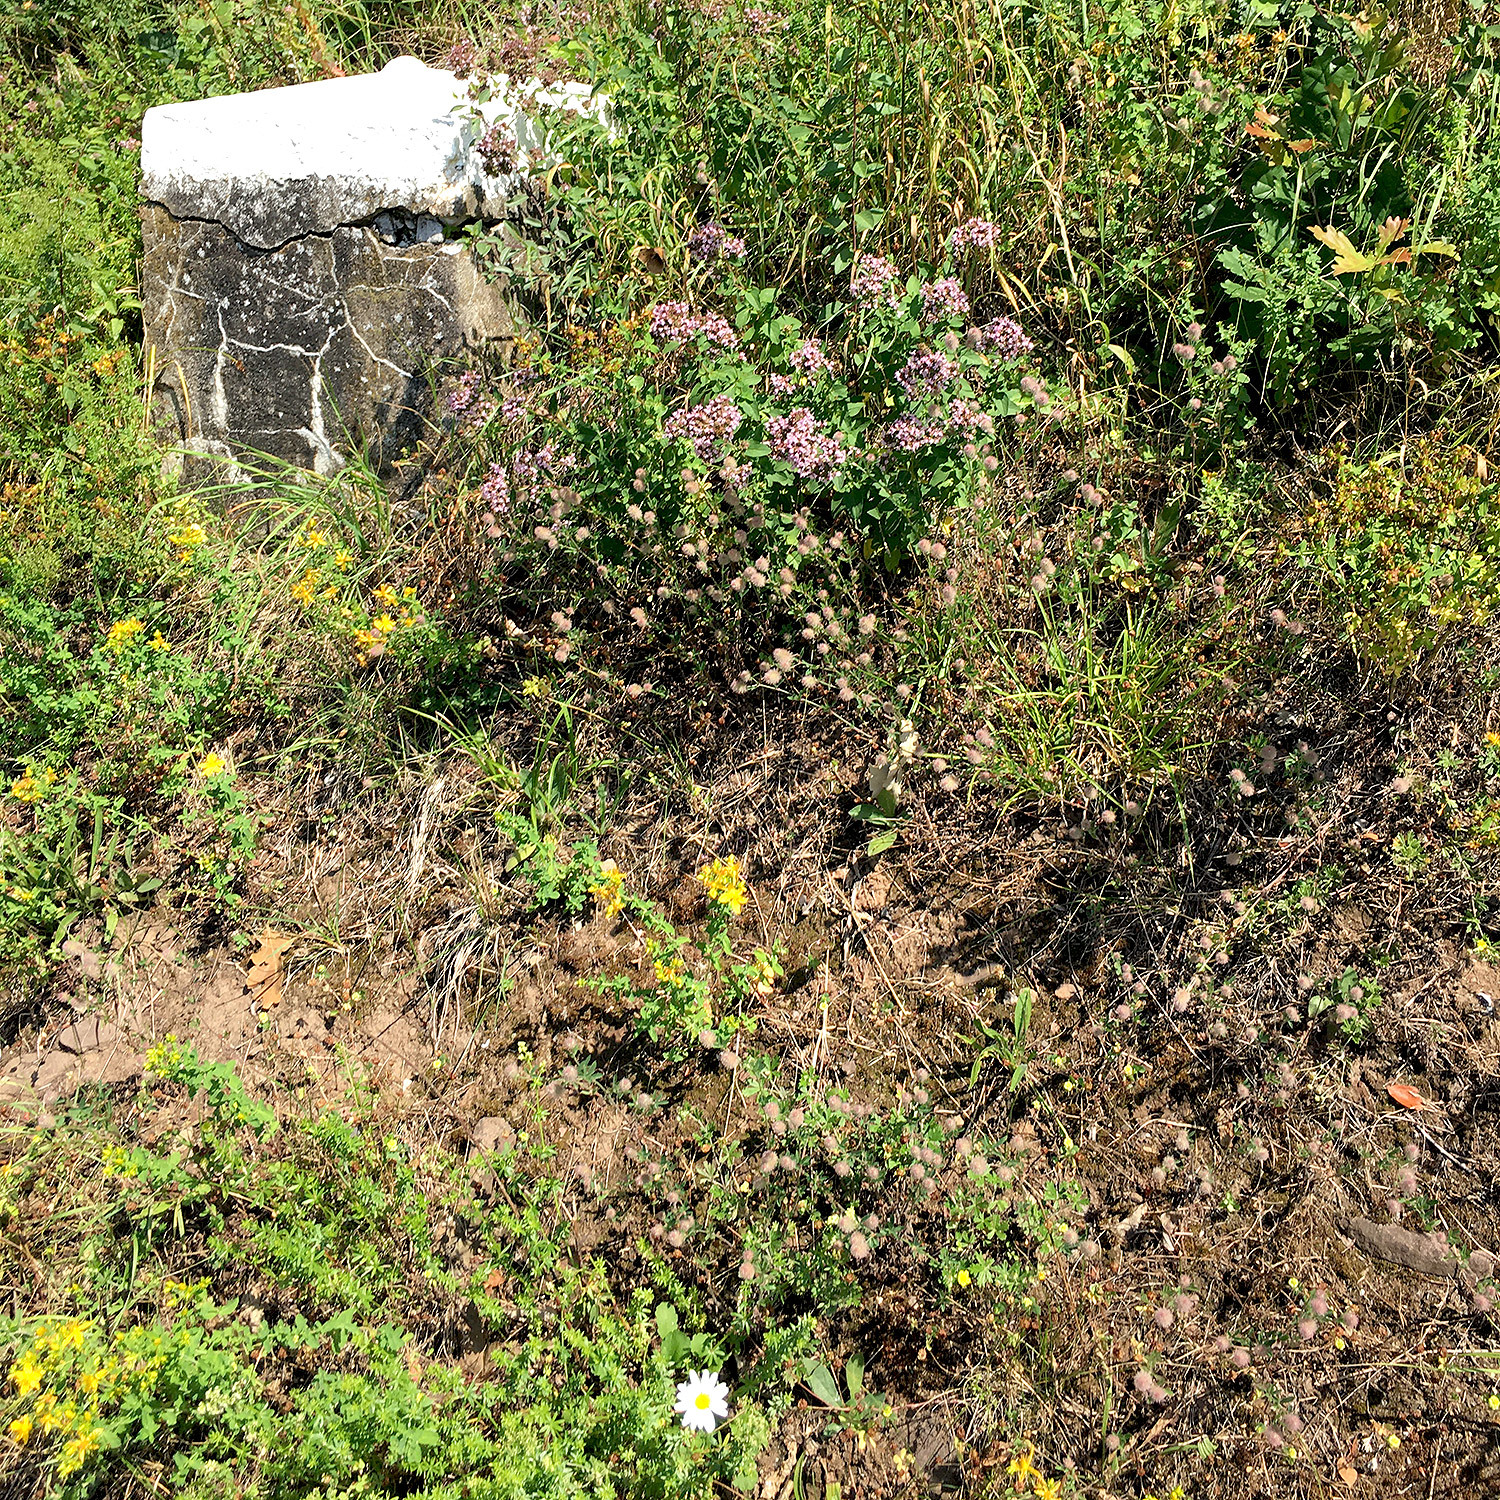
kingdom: Plantae
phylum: Tracheophyta
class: Magnoliopsida
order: Fabales
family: Fabaceae
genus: Trifolium
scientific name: Trifolium arvense
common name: Hare's-foot clover
